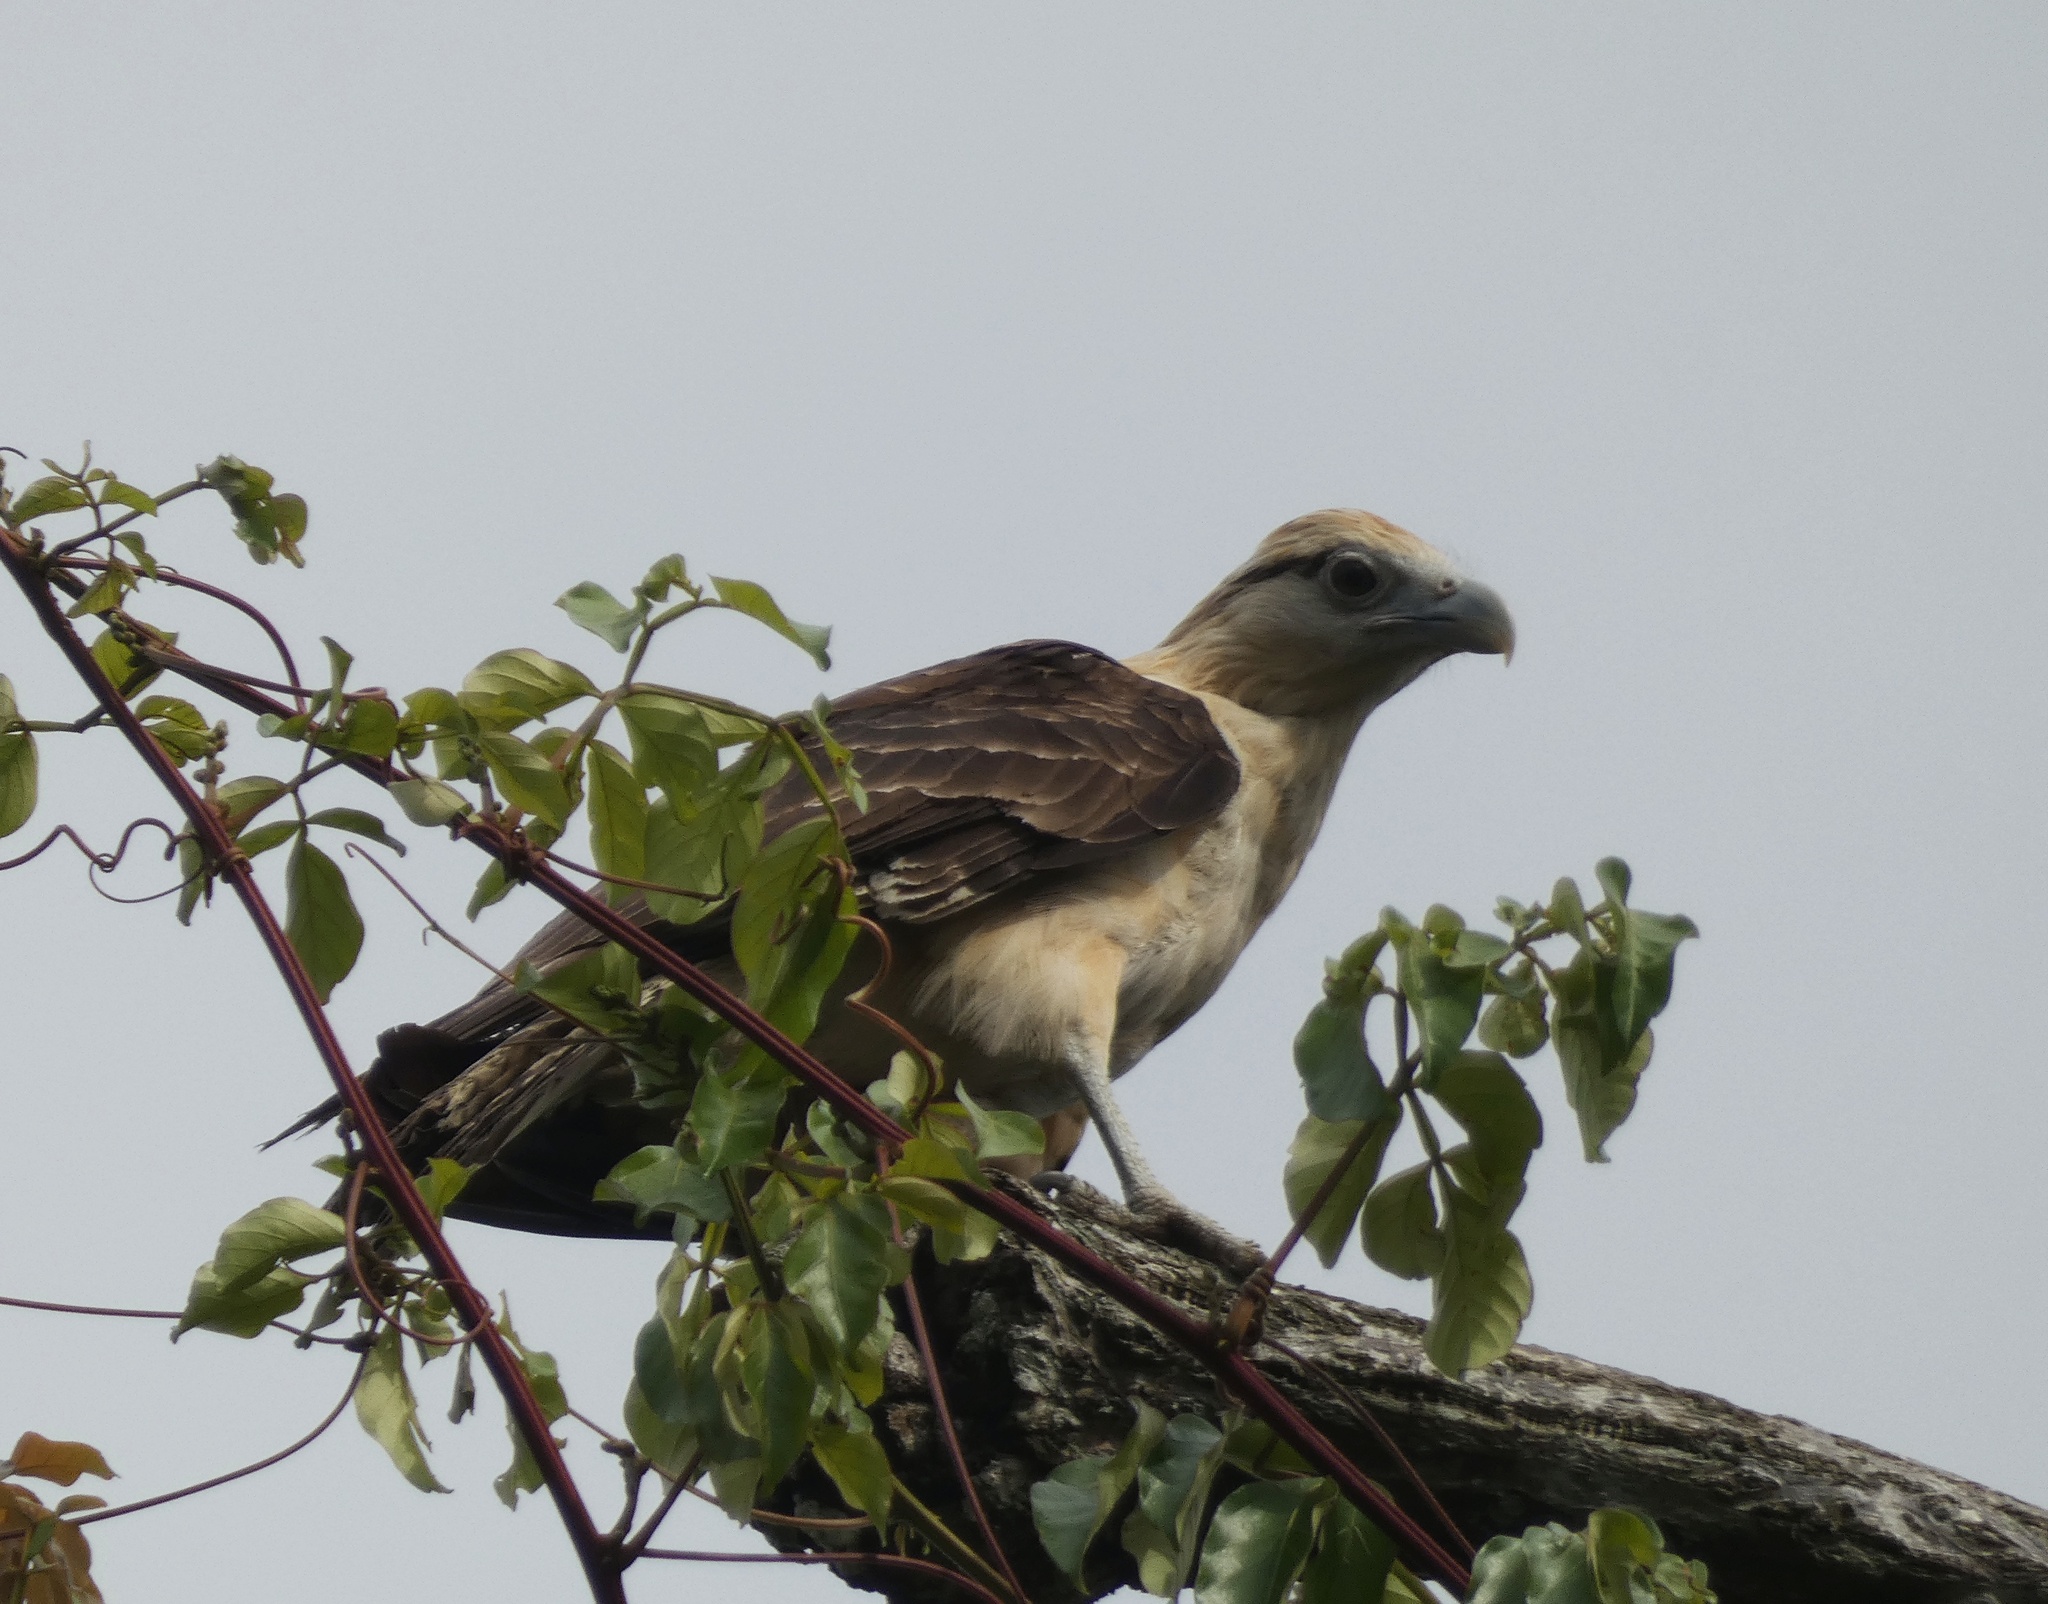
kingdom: Animalia
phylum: Chordata
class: Aves
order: Falconiformes
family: Falconidae
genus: Daptrius
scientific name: Daptrius
